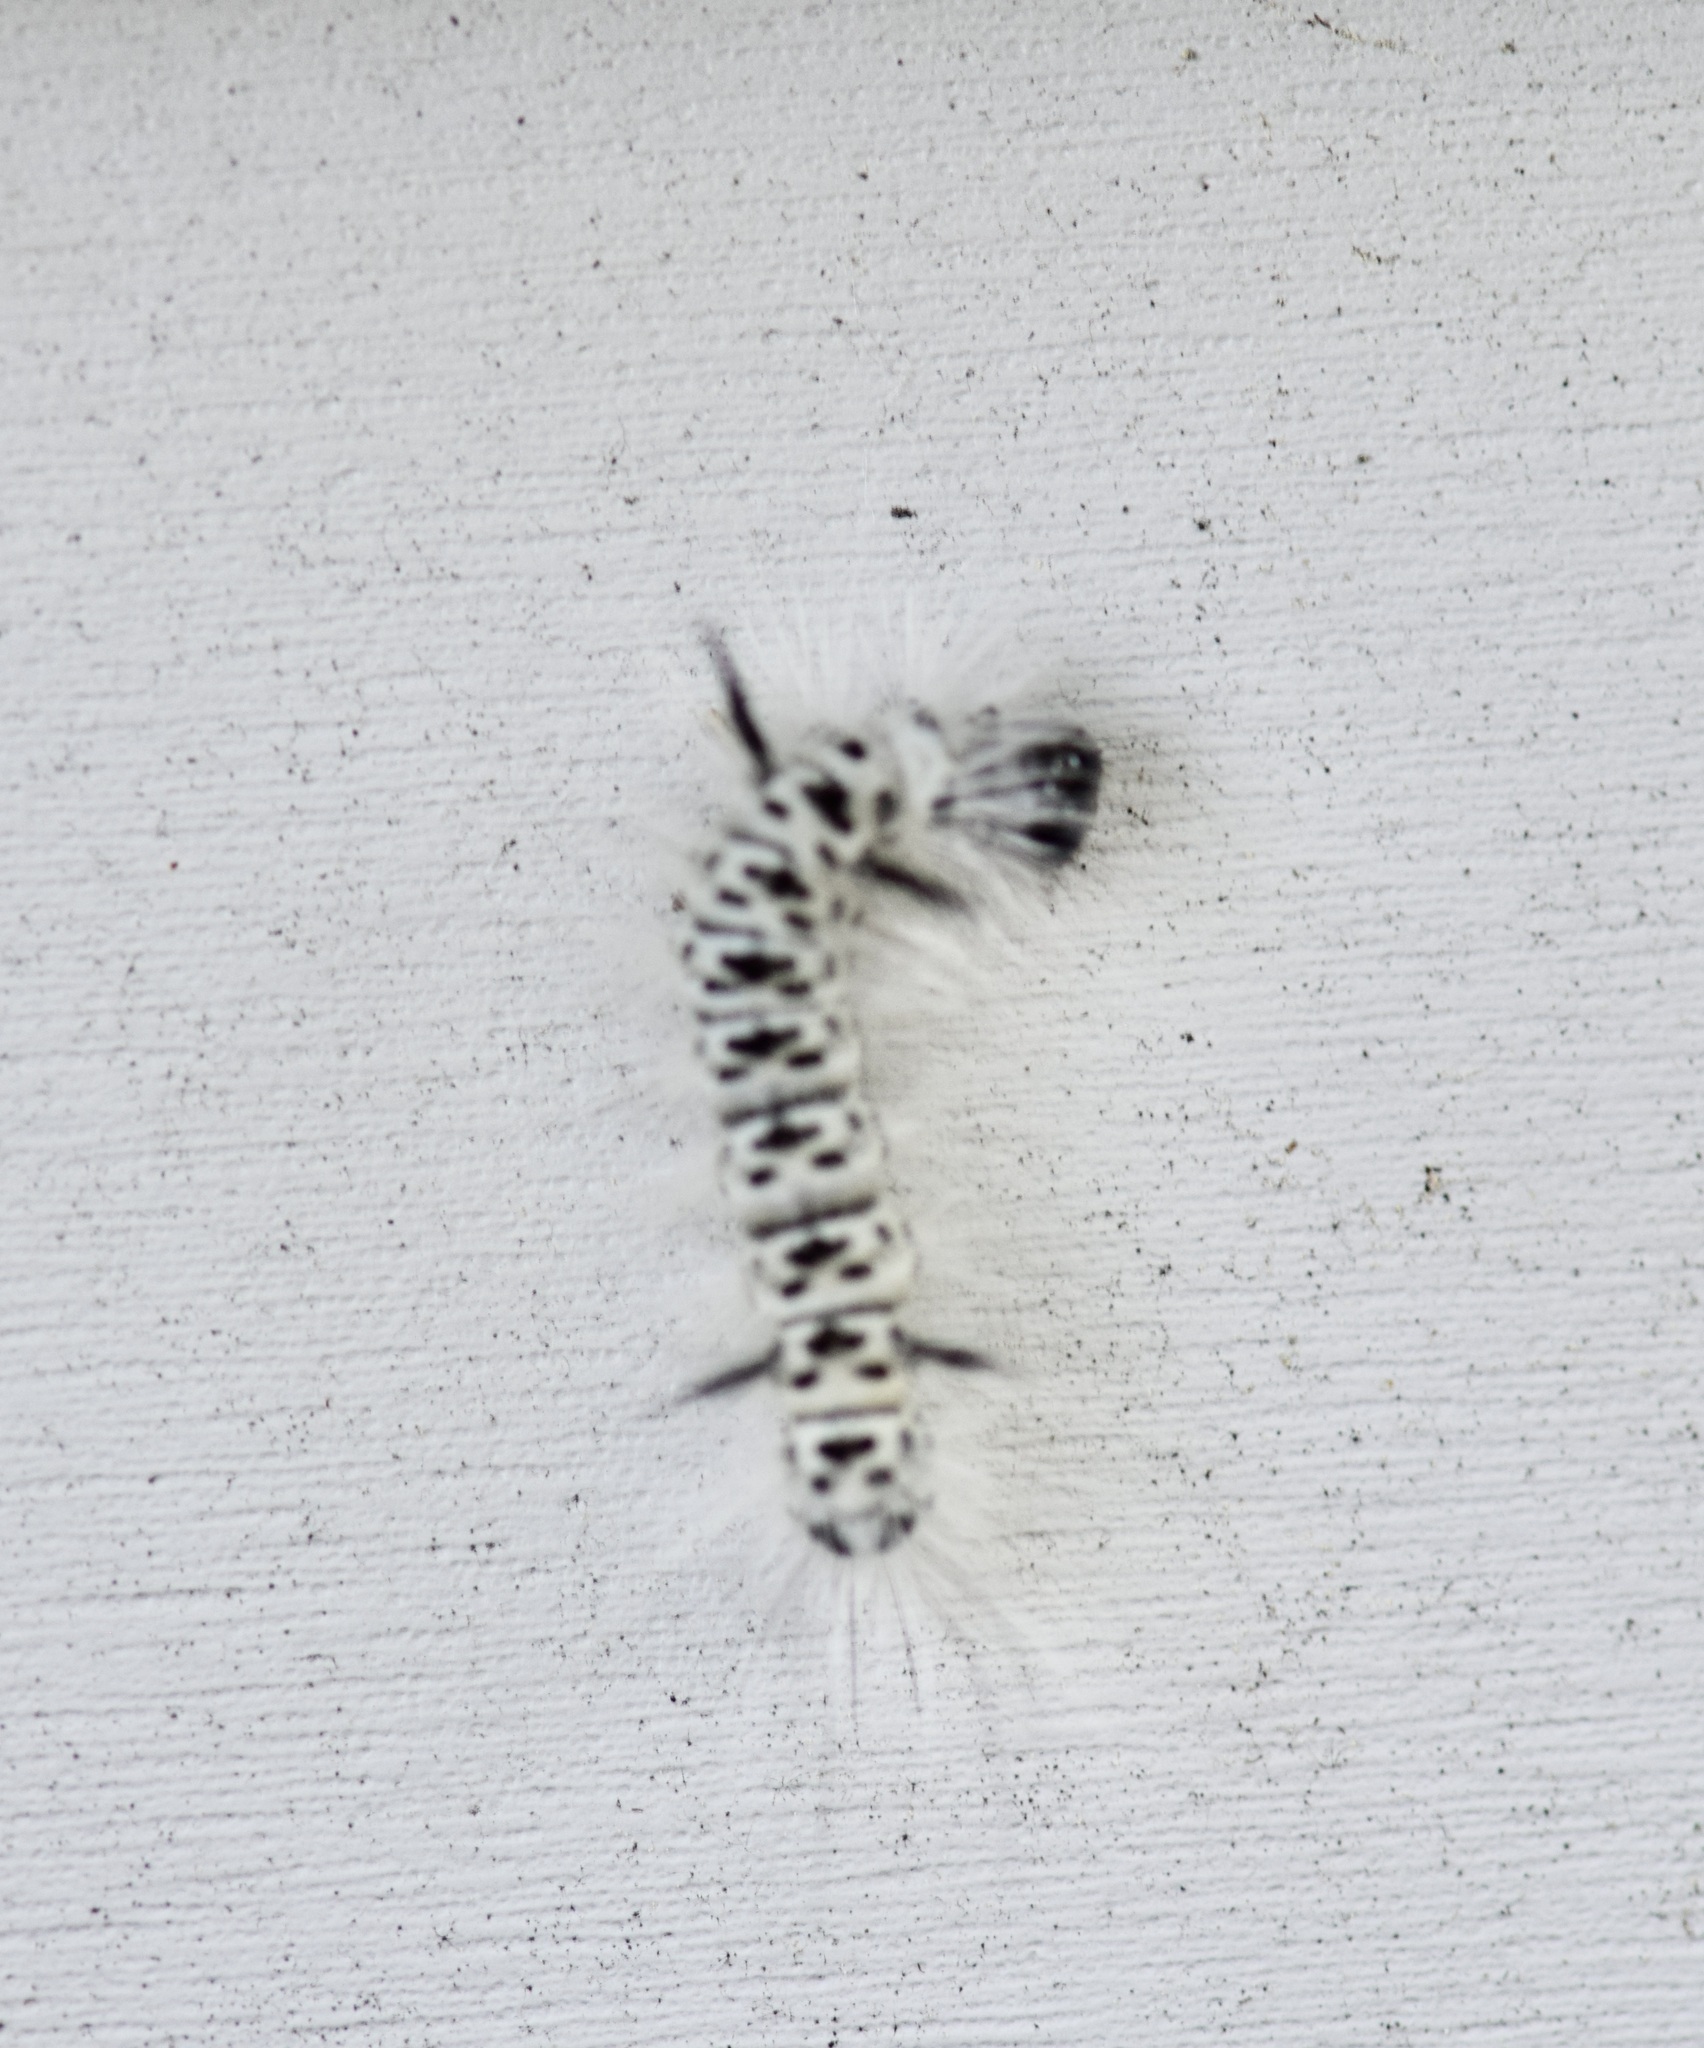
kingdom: Animalia
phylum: Arthropoda
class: Insecta
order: Lepidoptera
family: Erebidae
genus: Lophocampa
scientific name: Lophocampa caryae
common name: Hickory tussock moth
